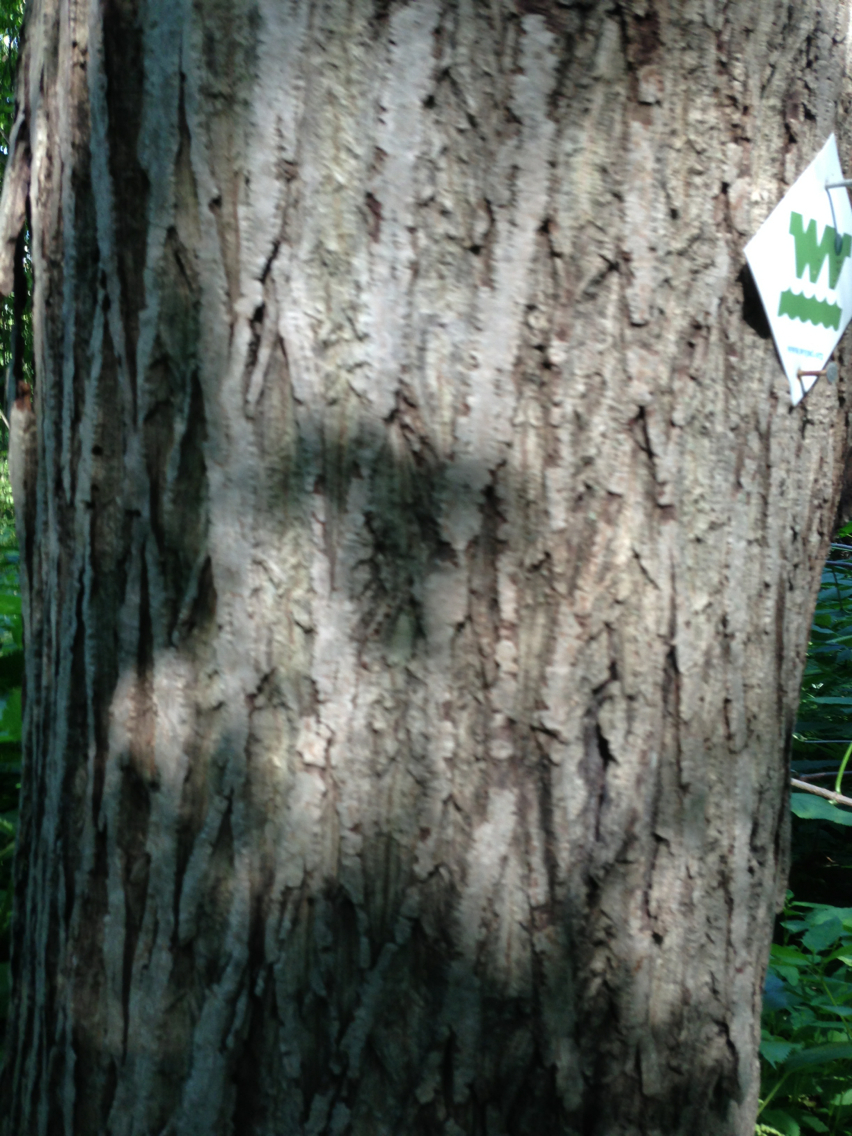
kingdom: Plantae
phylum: Tracheophyta
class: Magnoliopsida
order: Fagales
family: Juglandaceae
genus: Juglans
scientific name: Juglans cinerea
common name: Butternut
